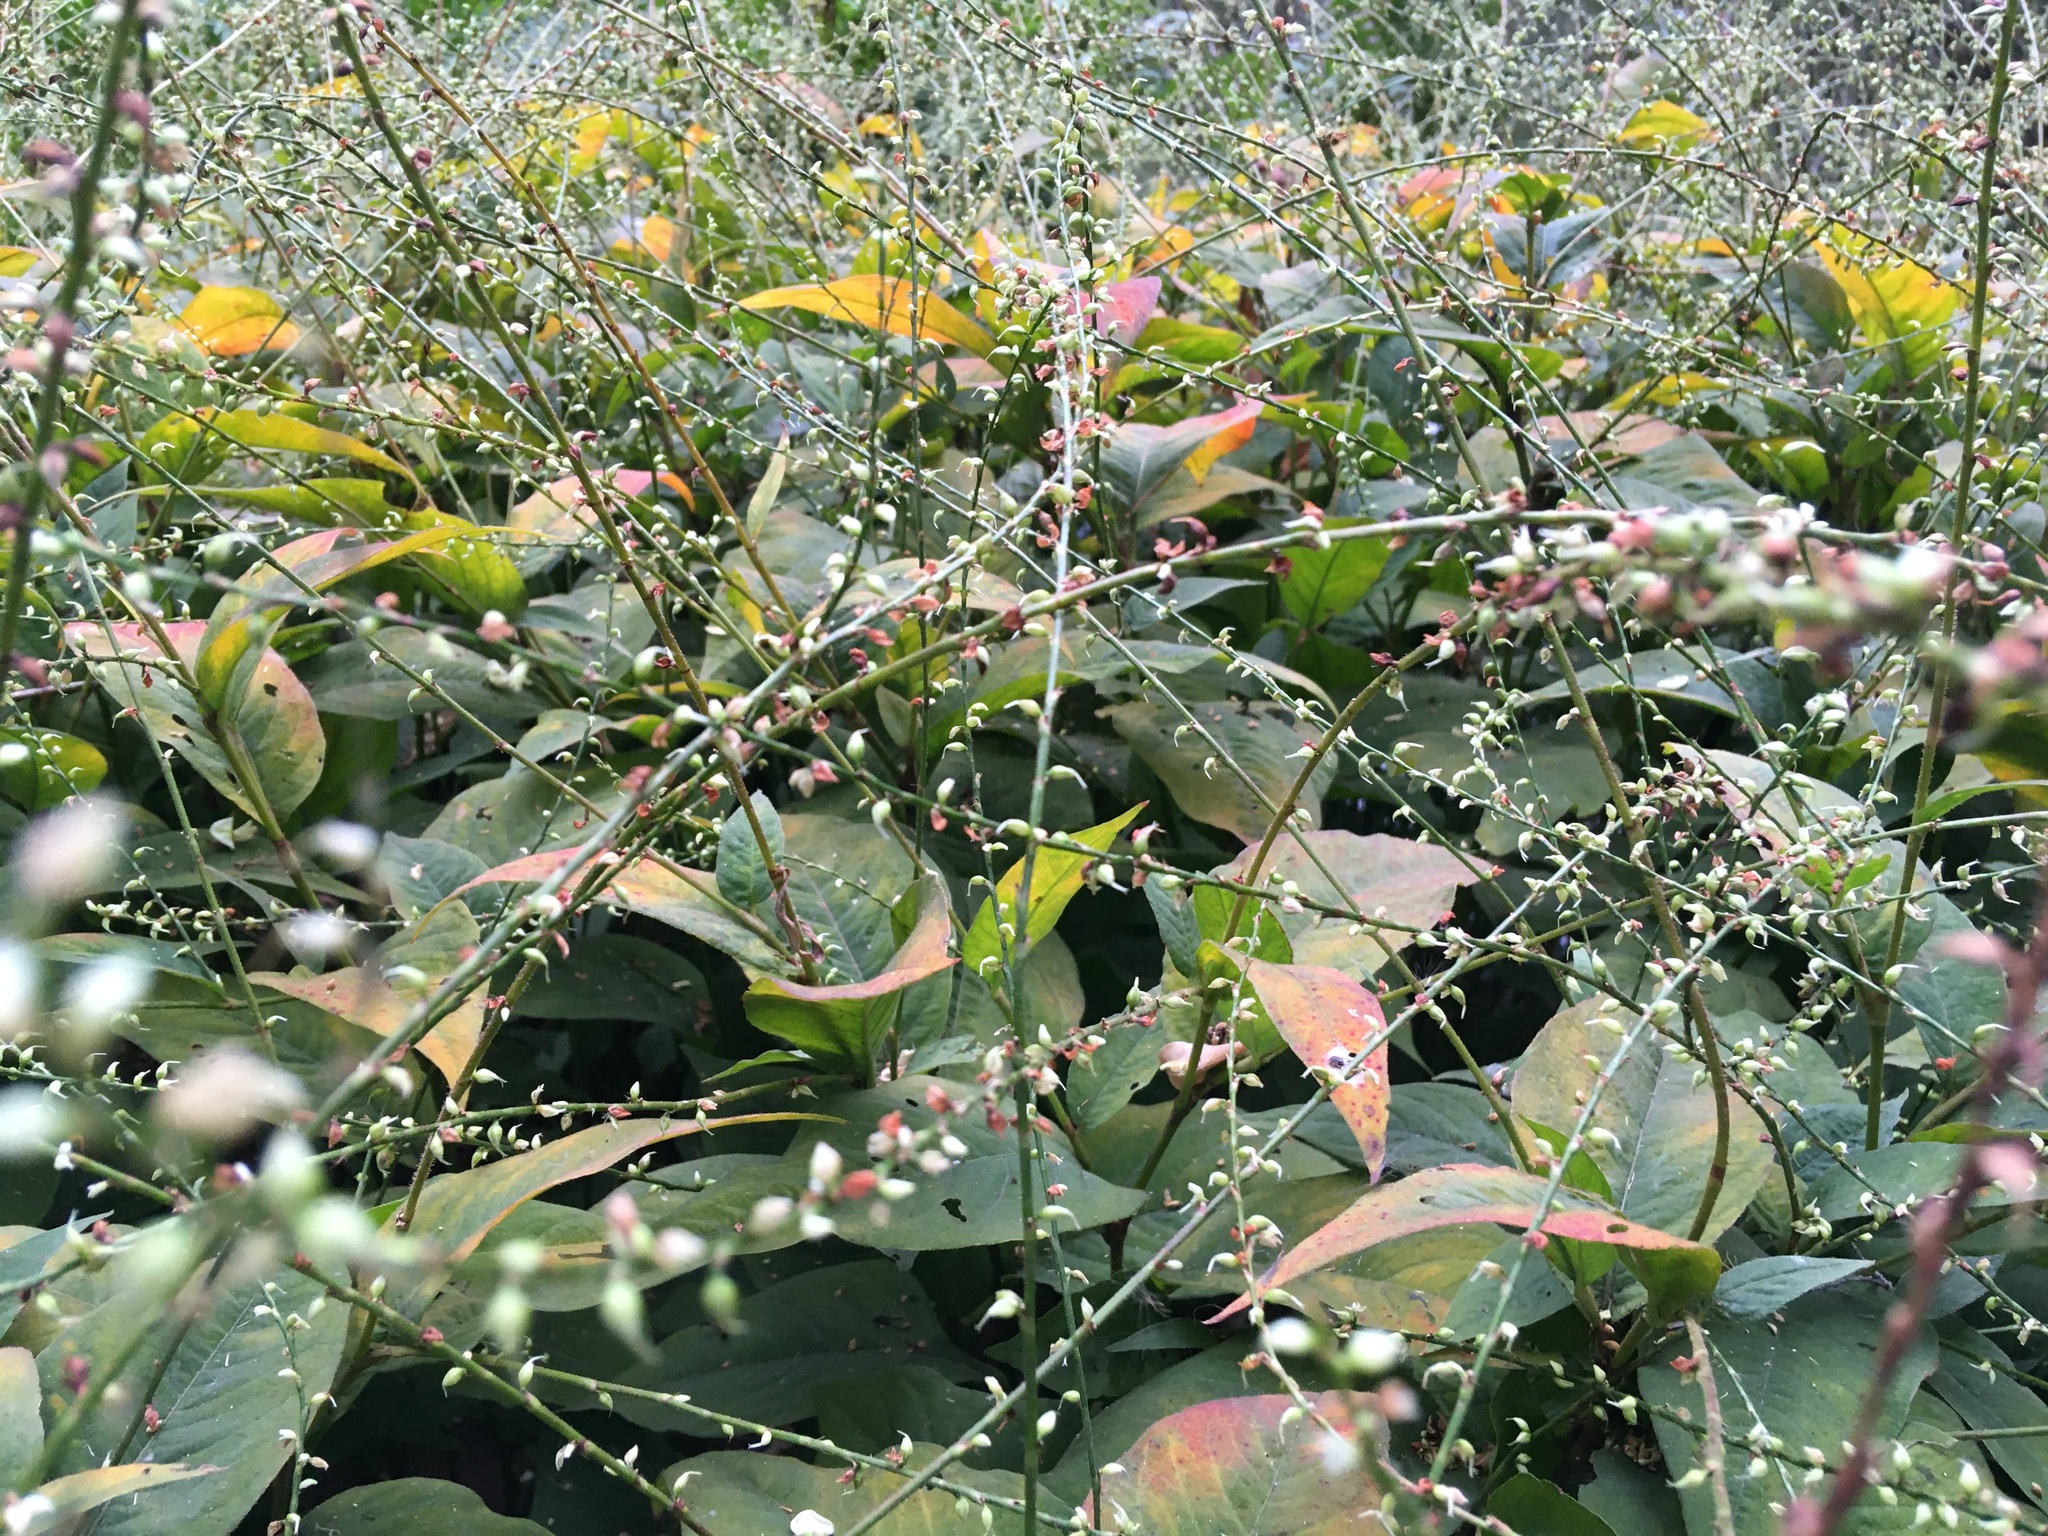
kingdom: Plantae
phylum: Tracheophyta
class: Magnoliopsida
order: Caryophyllales
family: Polygonaceae
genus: Persicaria
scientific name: Persicaria virginiana
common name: Jumpseed
